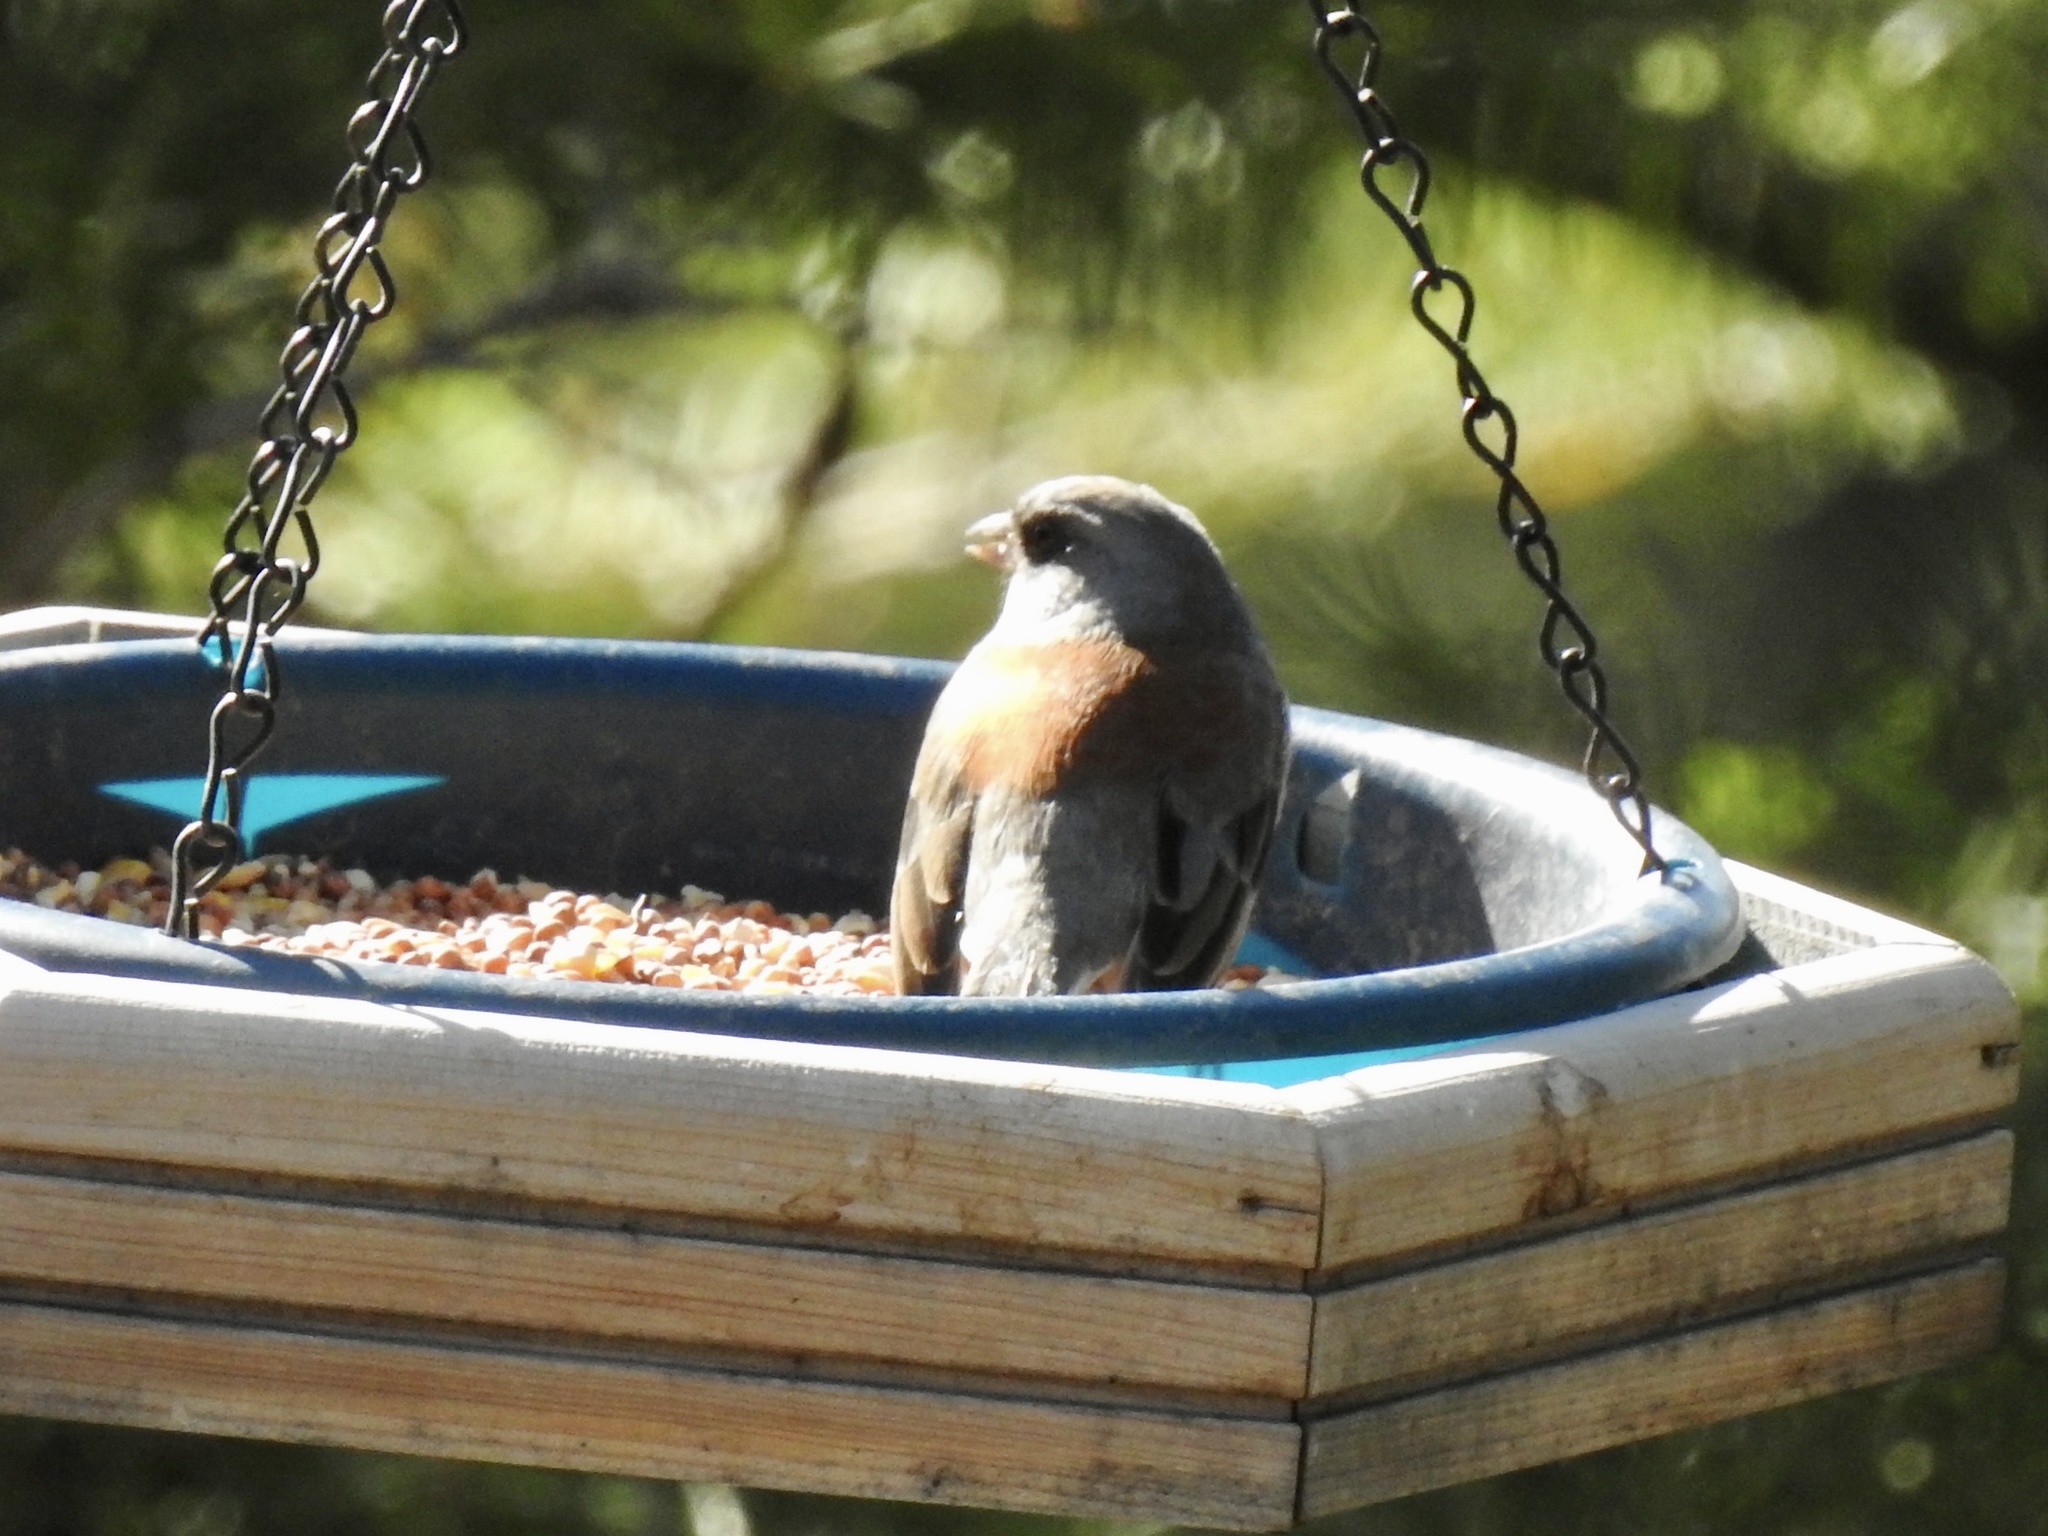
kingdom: Animalia
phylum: Chordata
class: Aves
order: Passeriformes
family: Passerellidae
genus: Junco
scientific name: Junco hyemalis
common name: Dark-eyed junco
